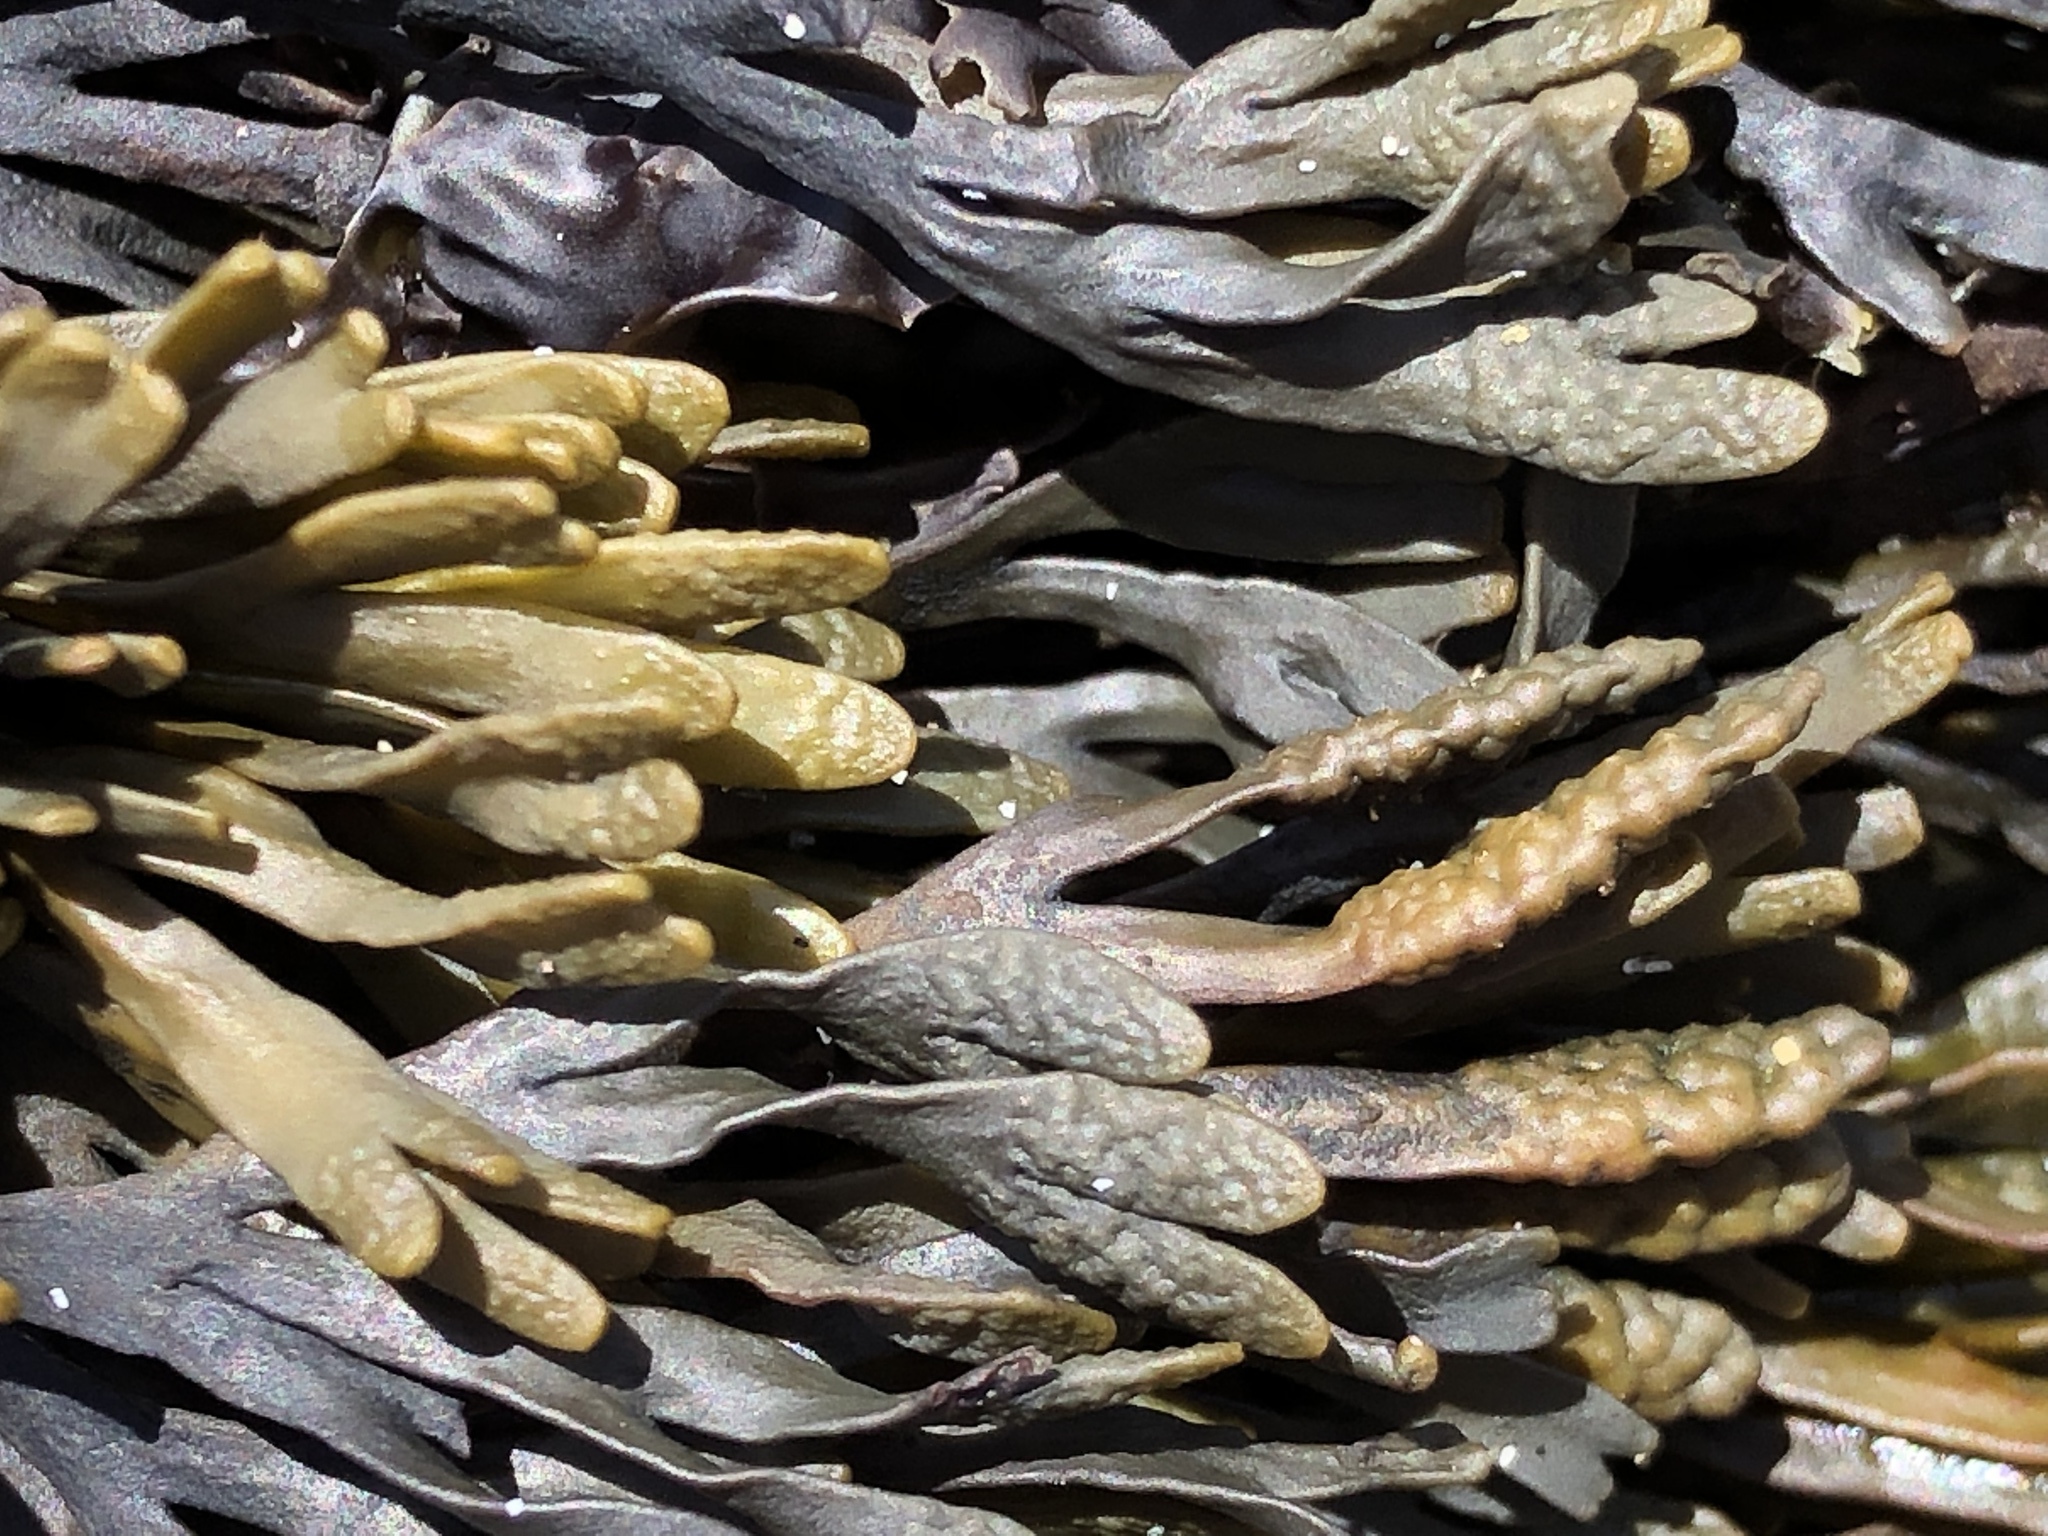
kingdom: Chromista
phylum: Ochrophyta
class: Phaeophyceae
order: Fucales
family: Fucaceae
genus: Pelvetiopsis
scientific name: Pelvetiopsis limitata
